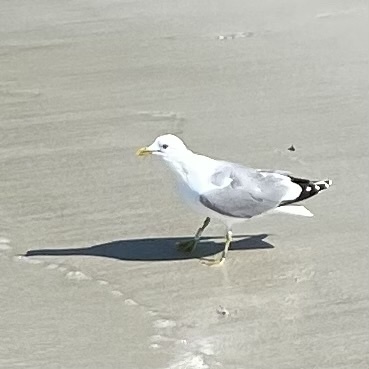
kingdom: Animalia
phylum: Chordata
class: Aves
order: Charadriiformes
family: Laridae
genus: Larus
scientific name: Larus canus
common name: Mew gull
